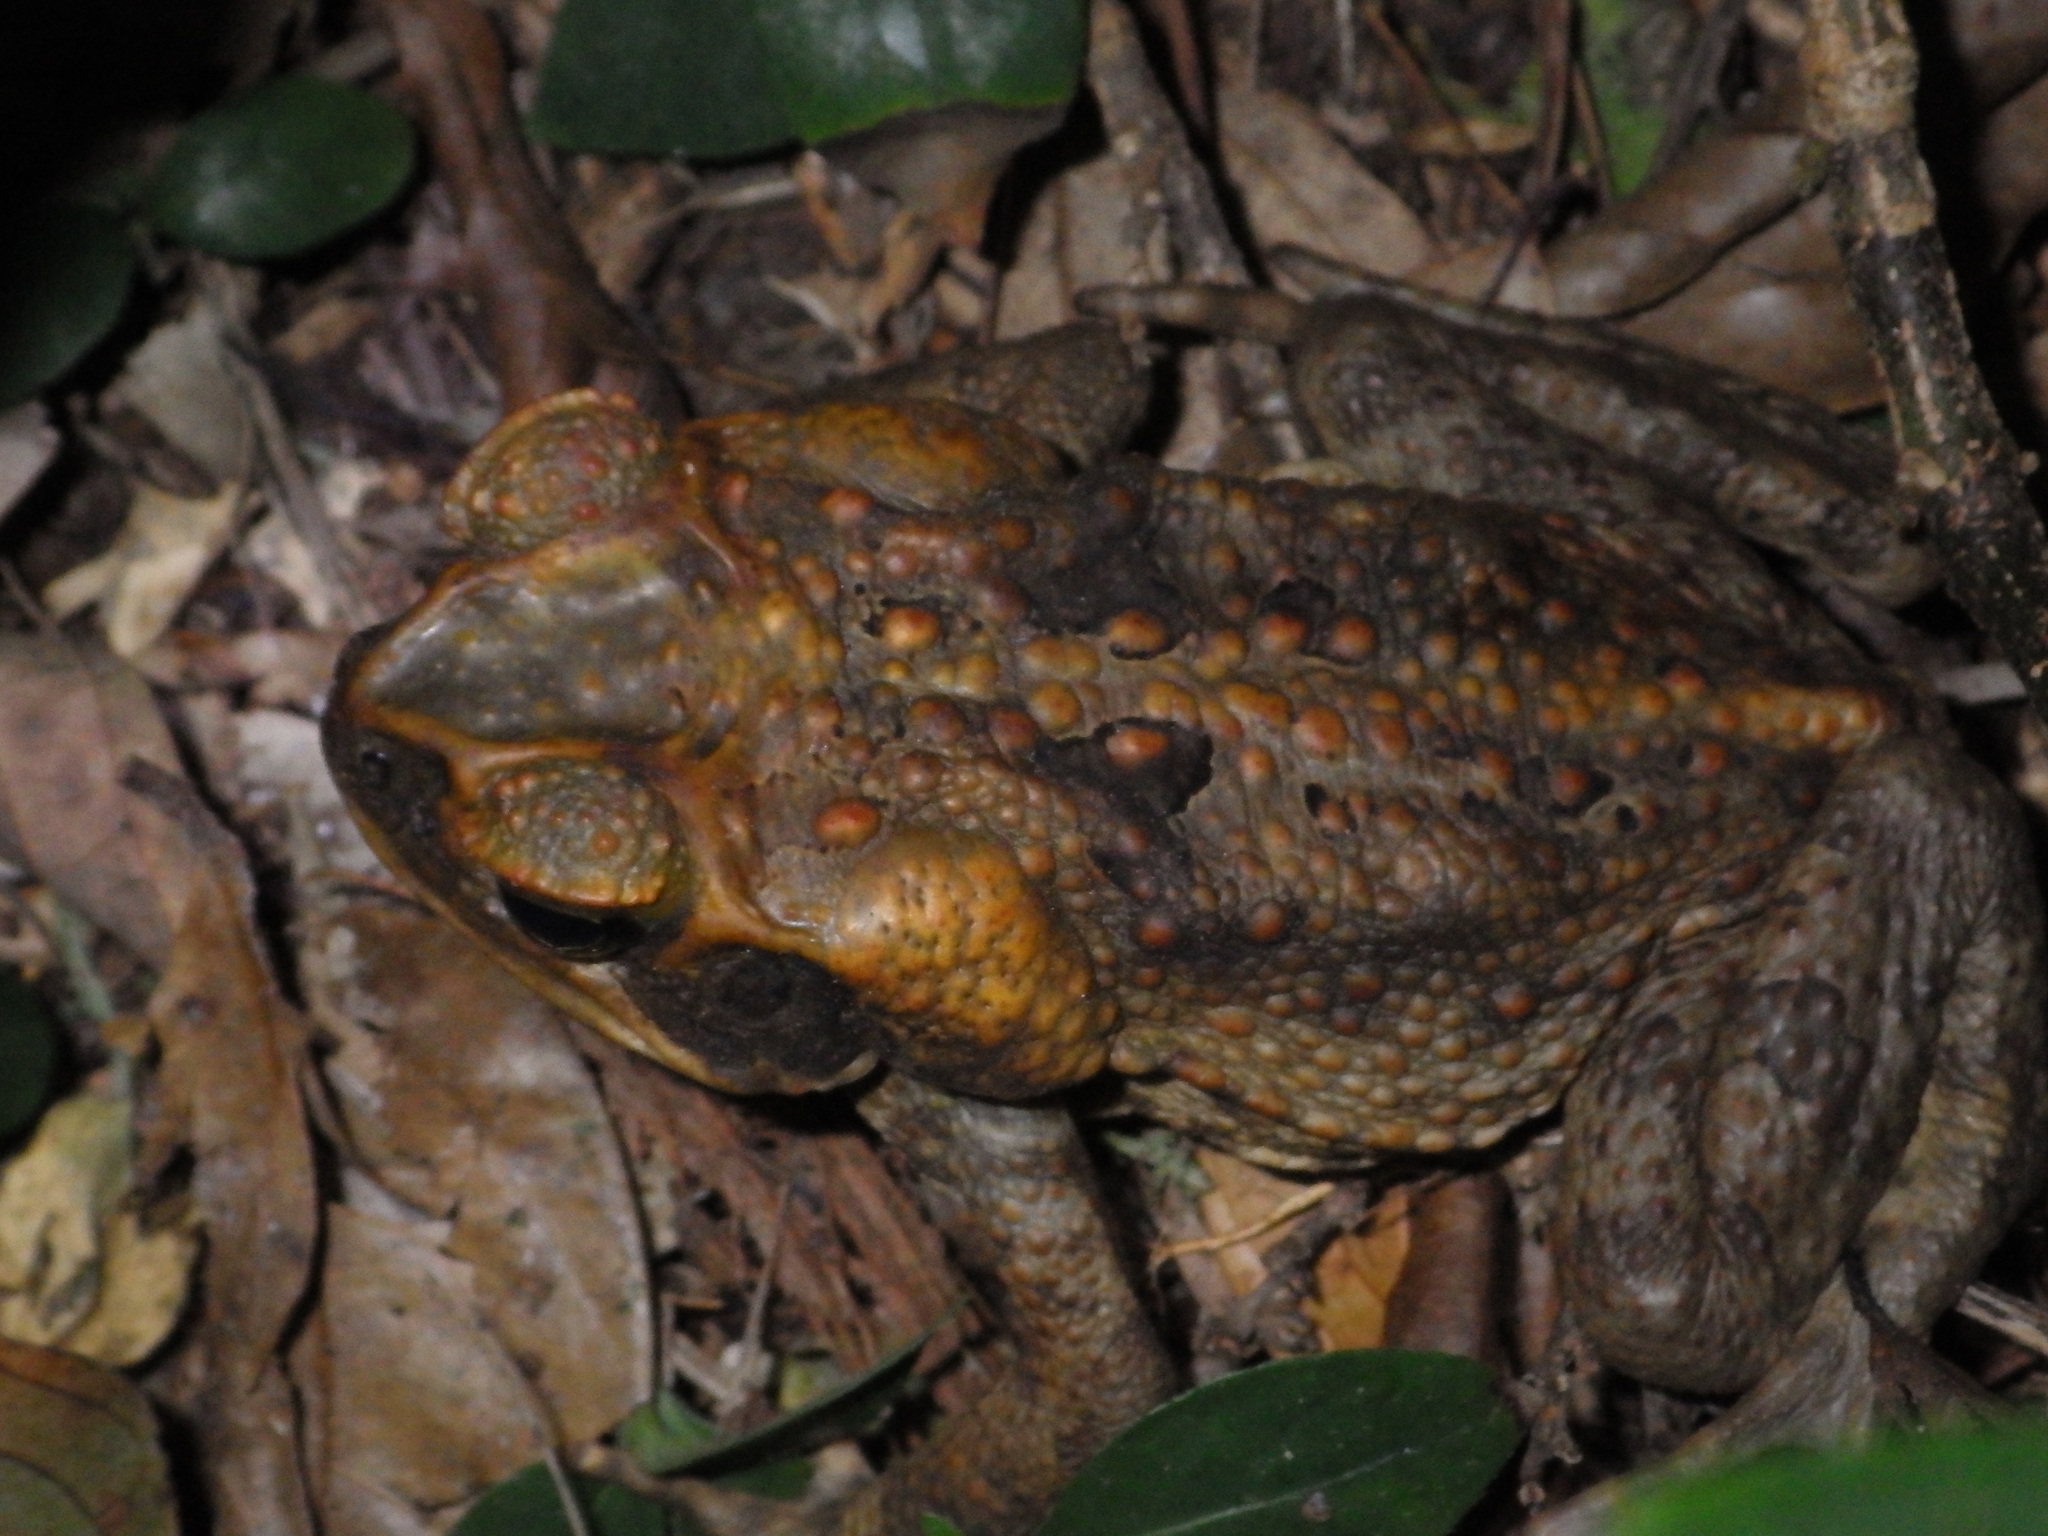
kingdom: Animalia
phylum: Chordata
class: Amphibia
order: Anura
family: Bufonidae
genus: Rhinella
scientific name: Rhinella marina
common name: Cane toad
